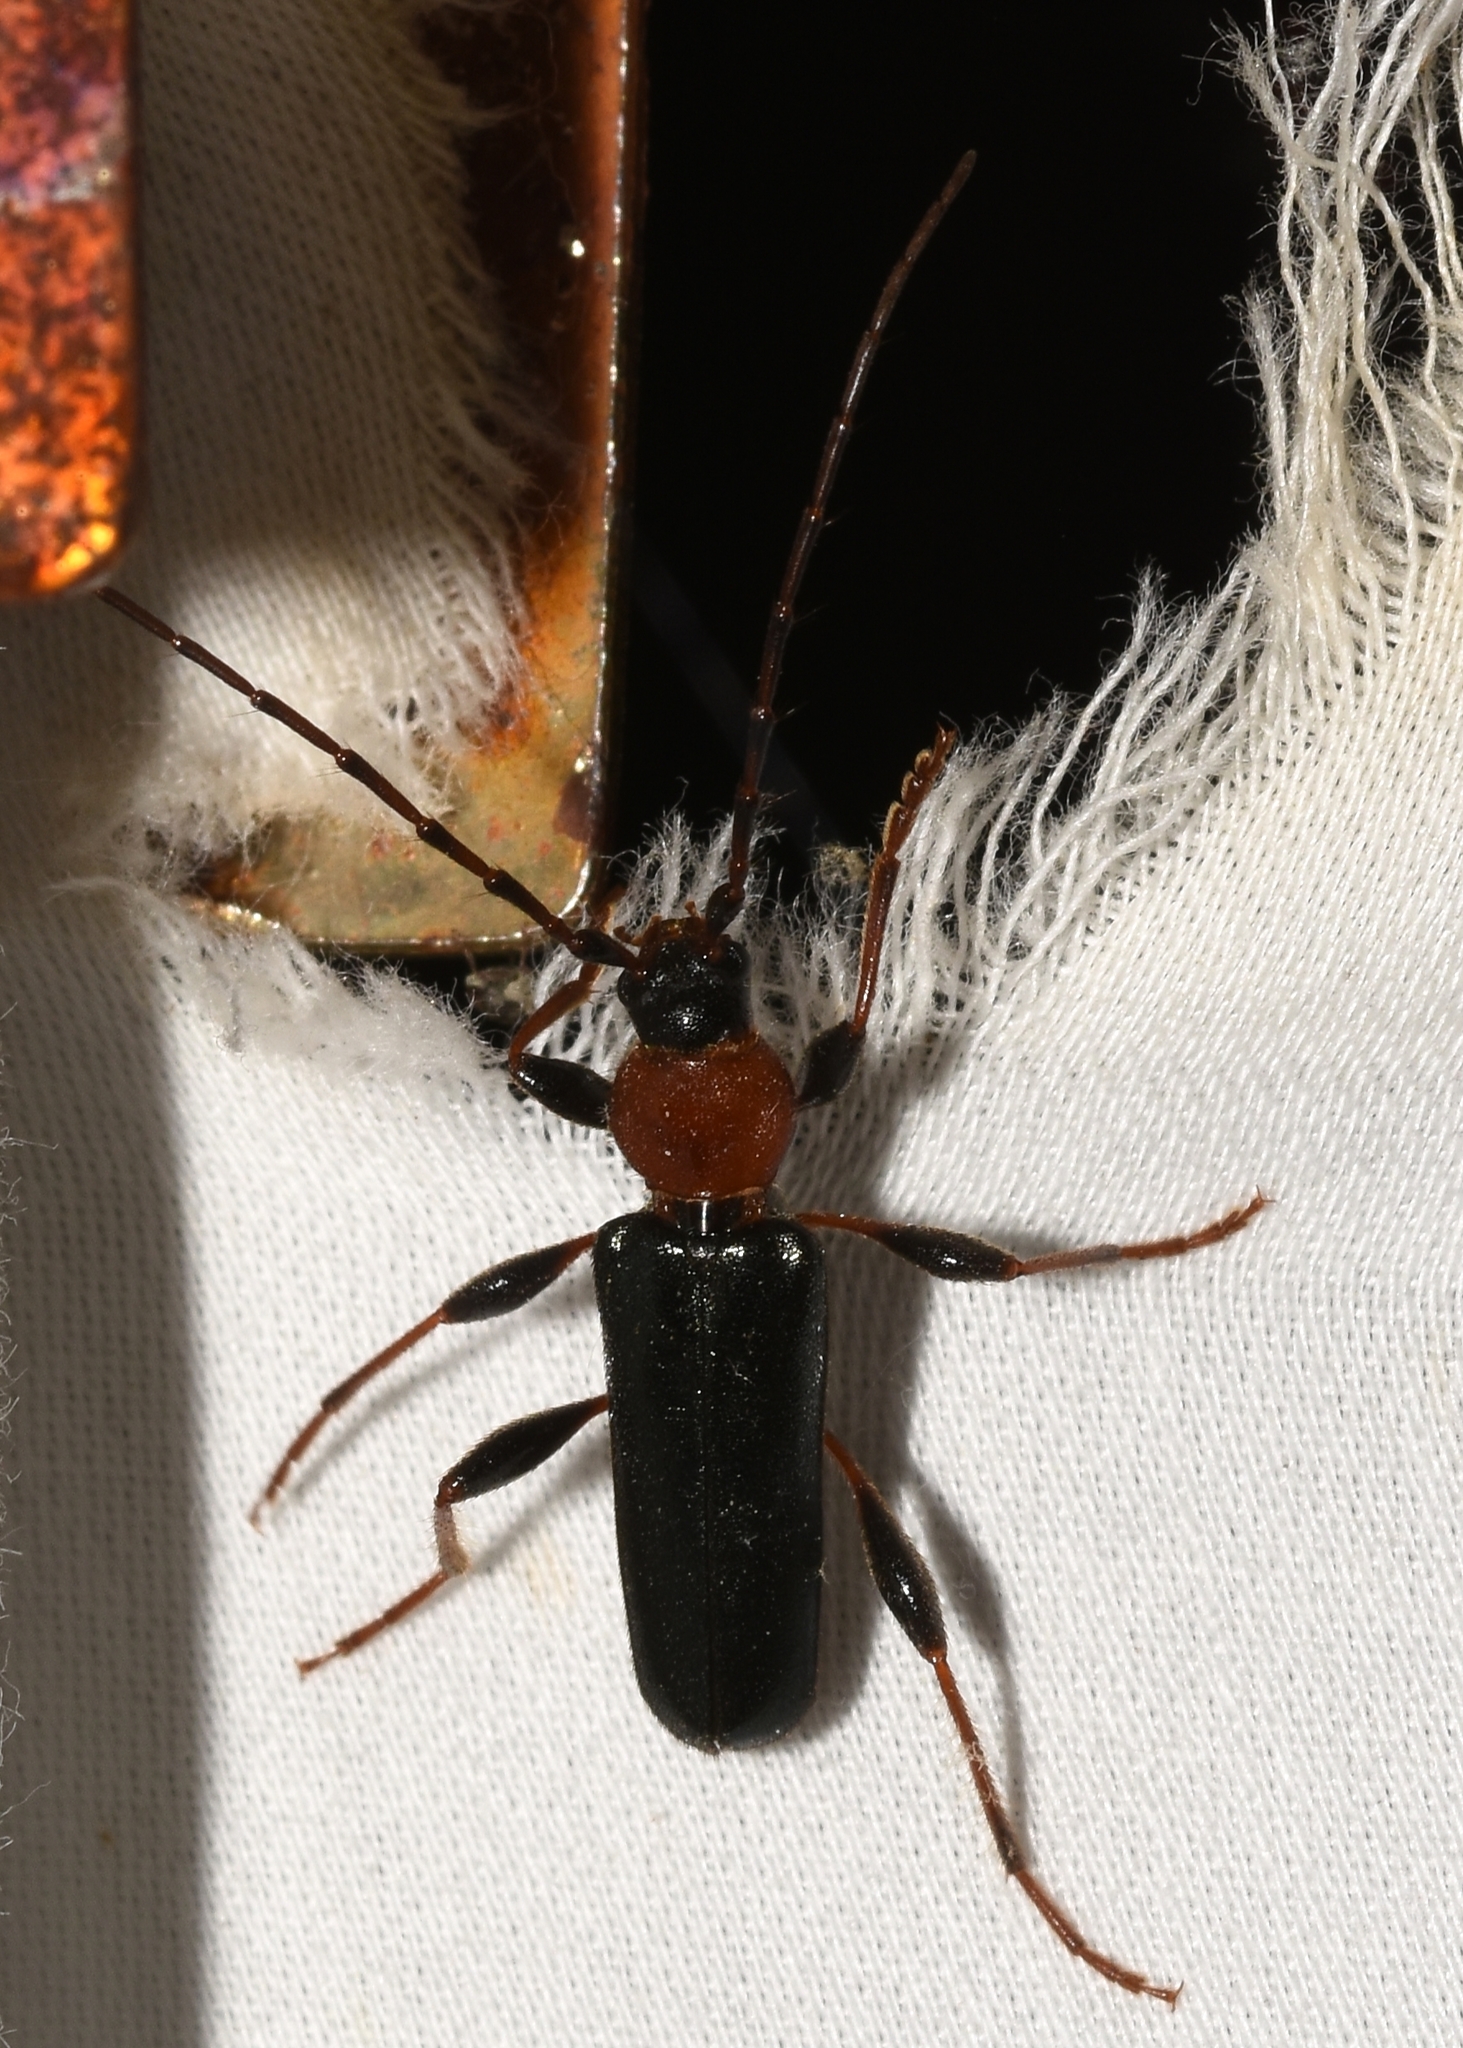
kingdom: Animalia
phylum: Arthropoda
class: Insecta
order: Coleoptera
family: Cerambycidae
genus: Phymatodes
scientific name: Phymatodes testaceus
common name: Long-horned beetle
